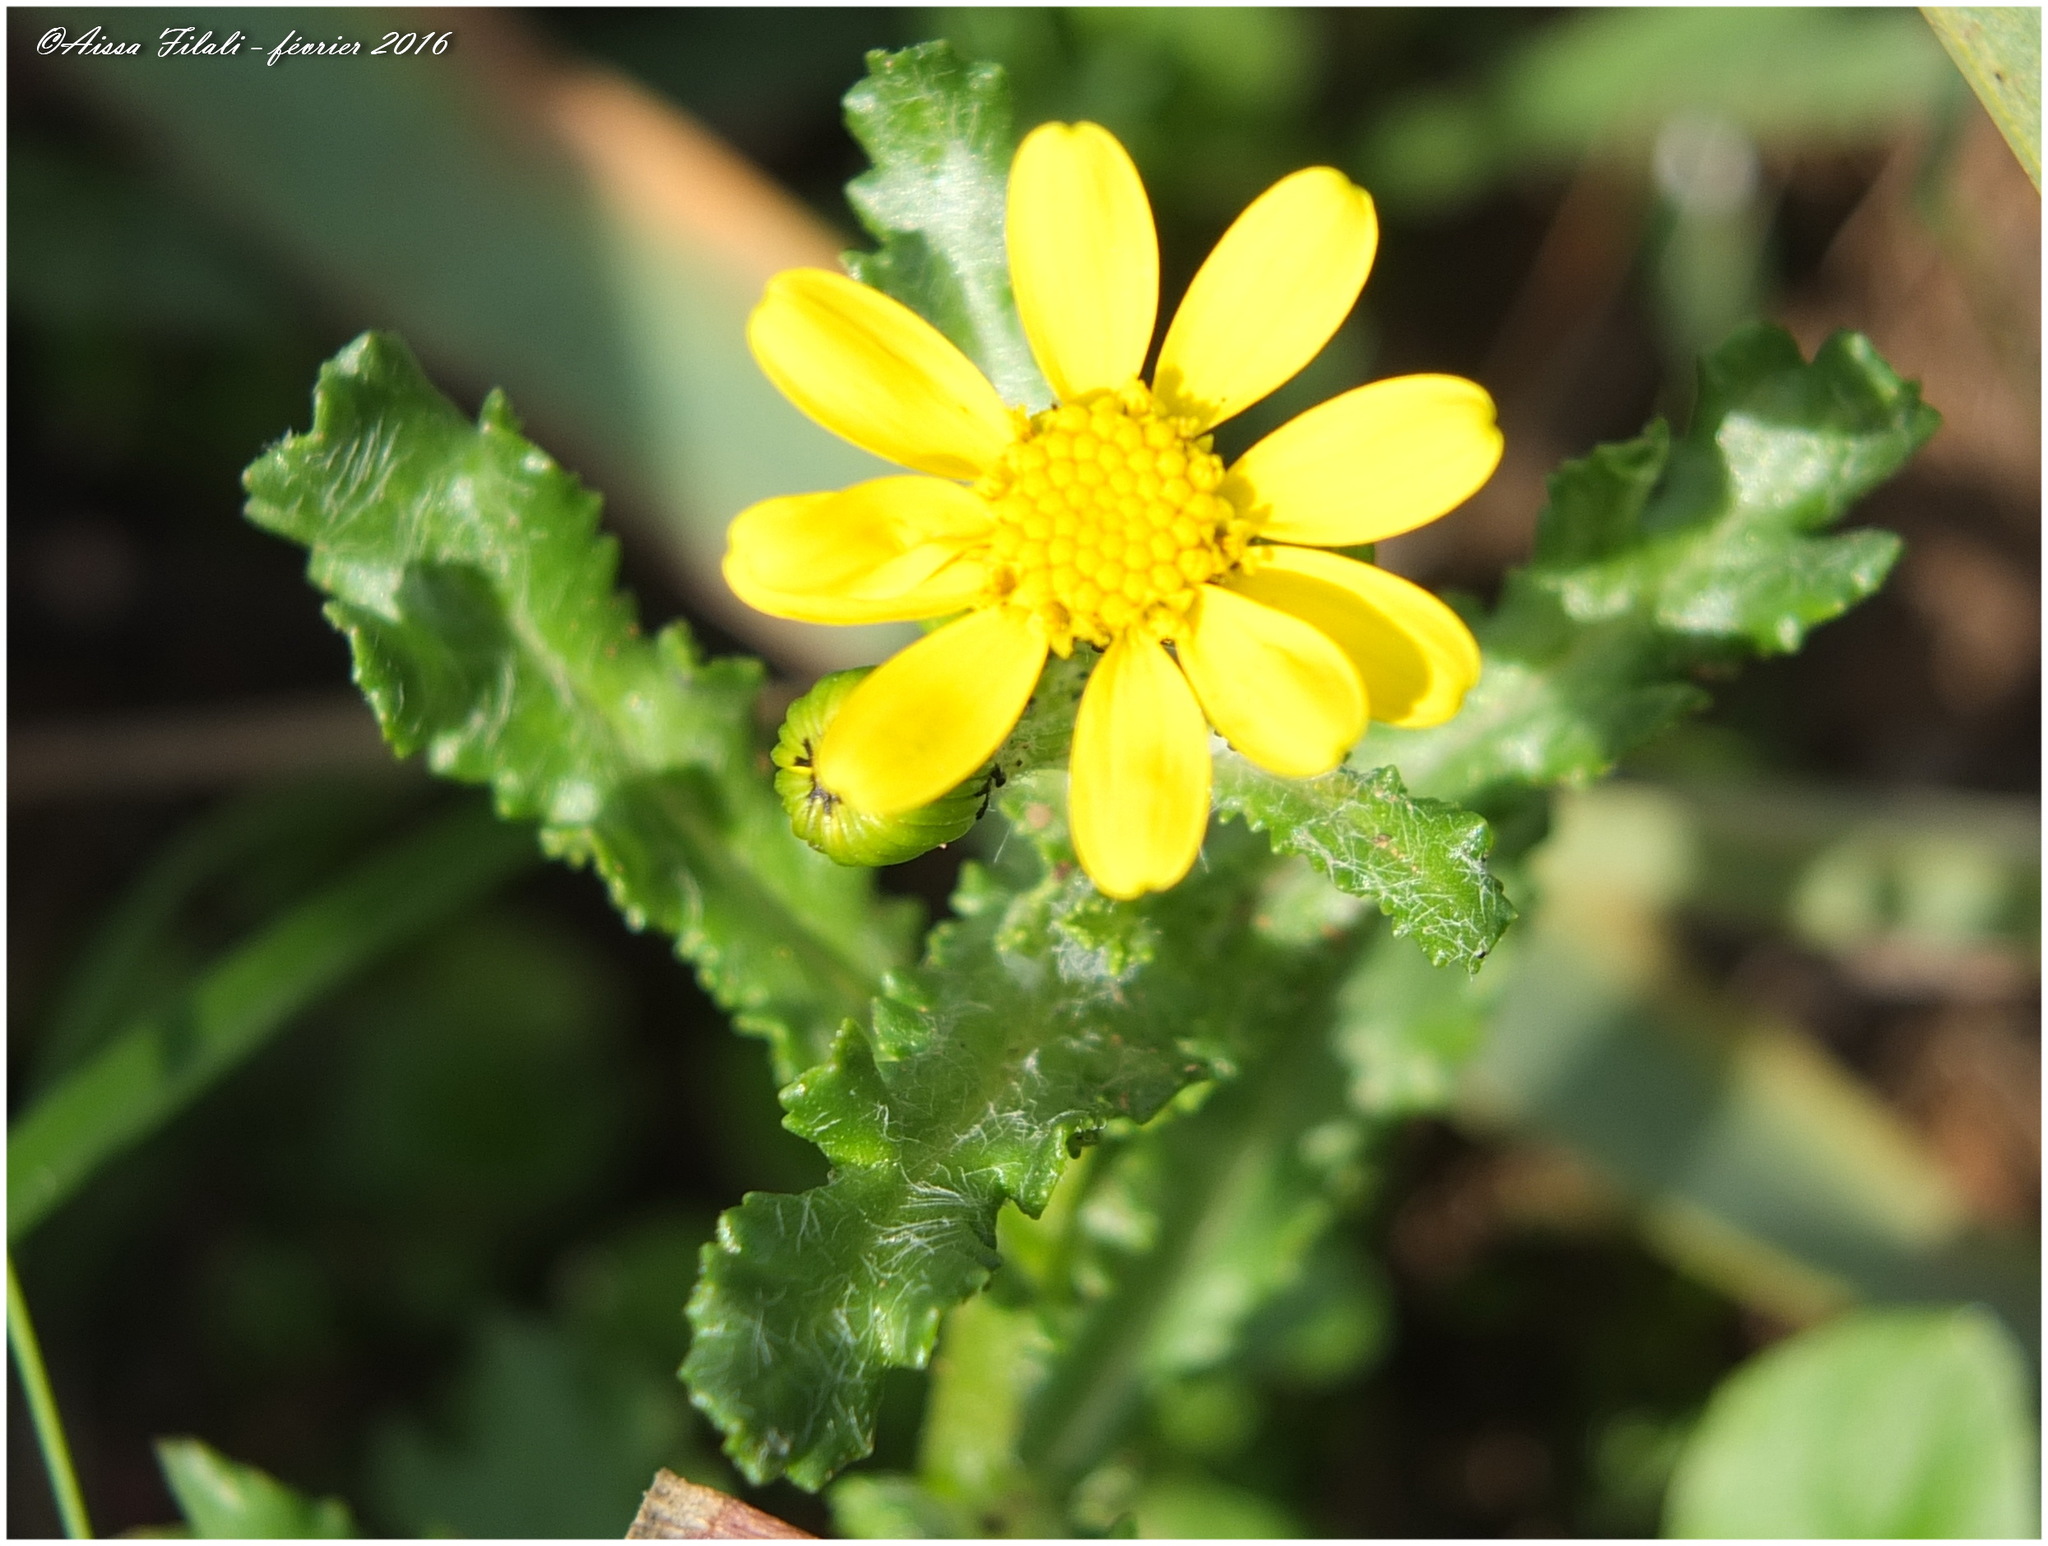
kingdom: Plantae
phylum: Tracheophyta
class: Magnoliopsida
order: Asterales
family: Asteraceae
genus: Senecio
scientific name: Senecio leucanthemifolius
